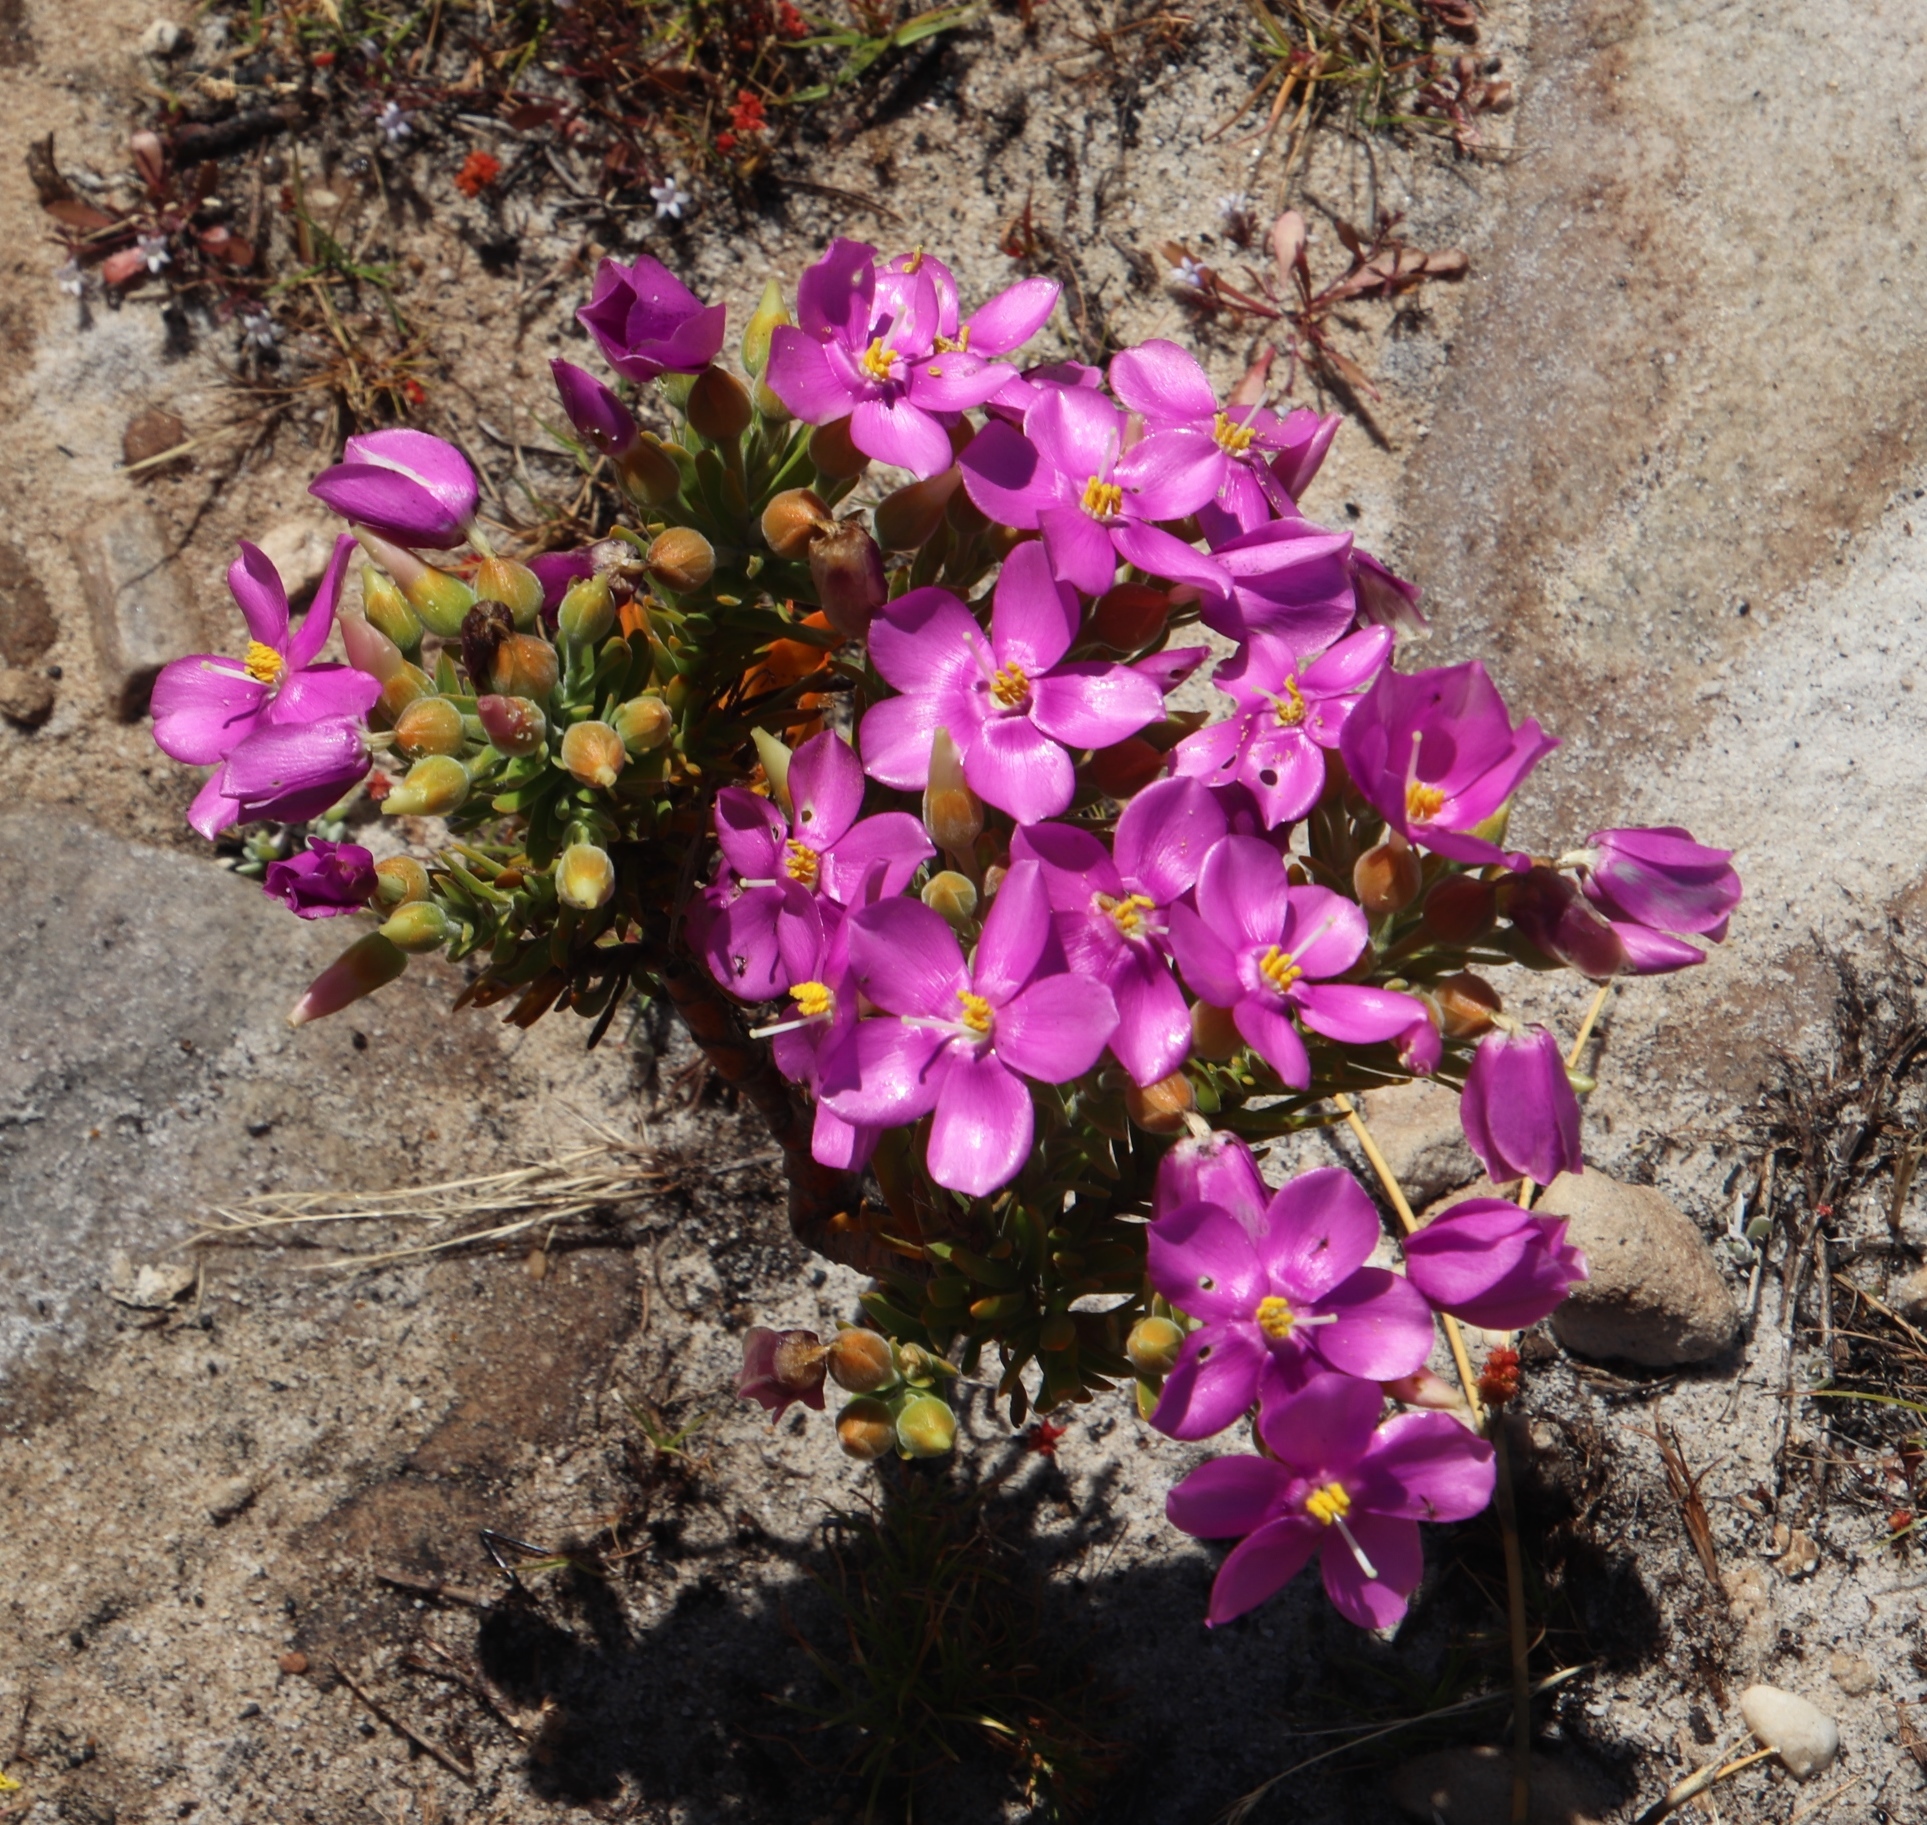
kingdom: Plantae
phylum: Tracheophyta
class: Magnoliopsida
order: Gentianales
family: Gentianaceae
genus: Orphium
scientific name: Orphium frutescens
